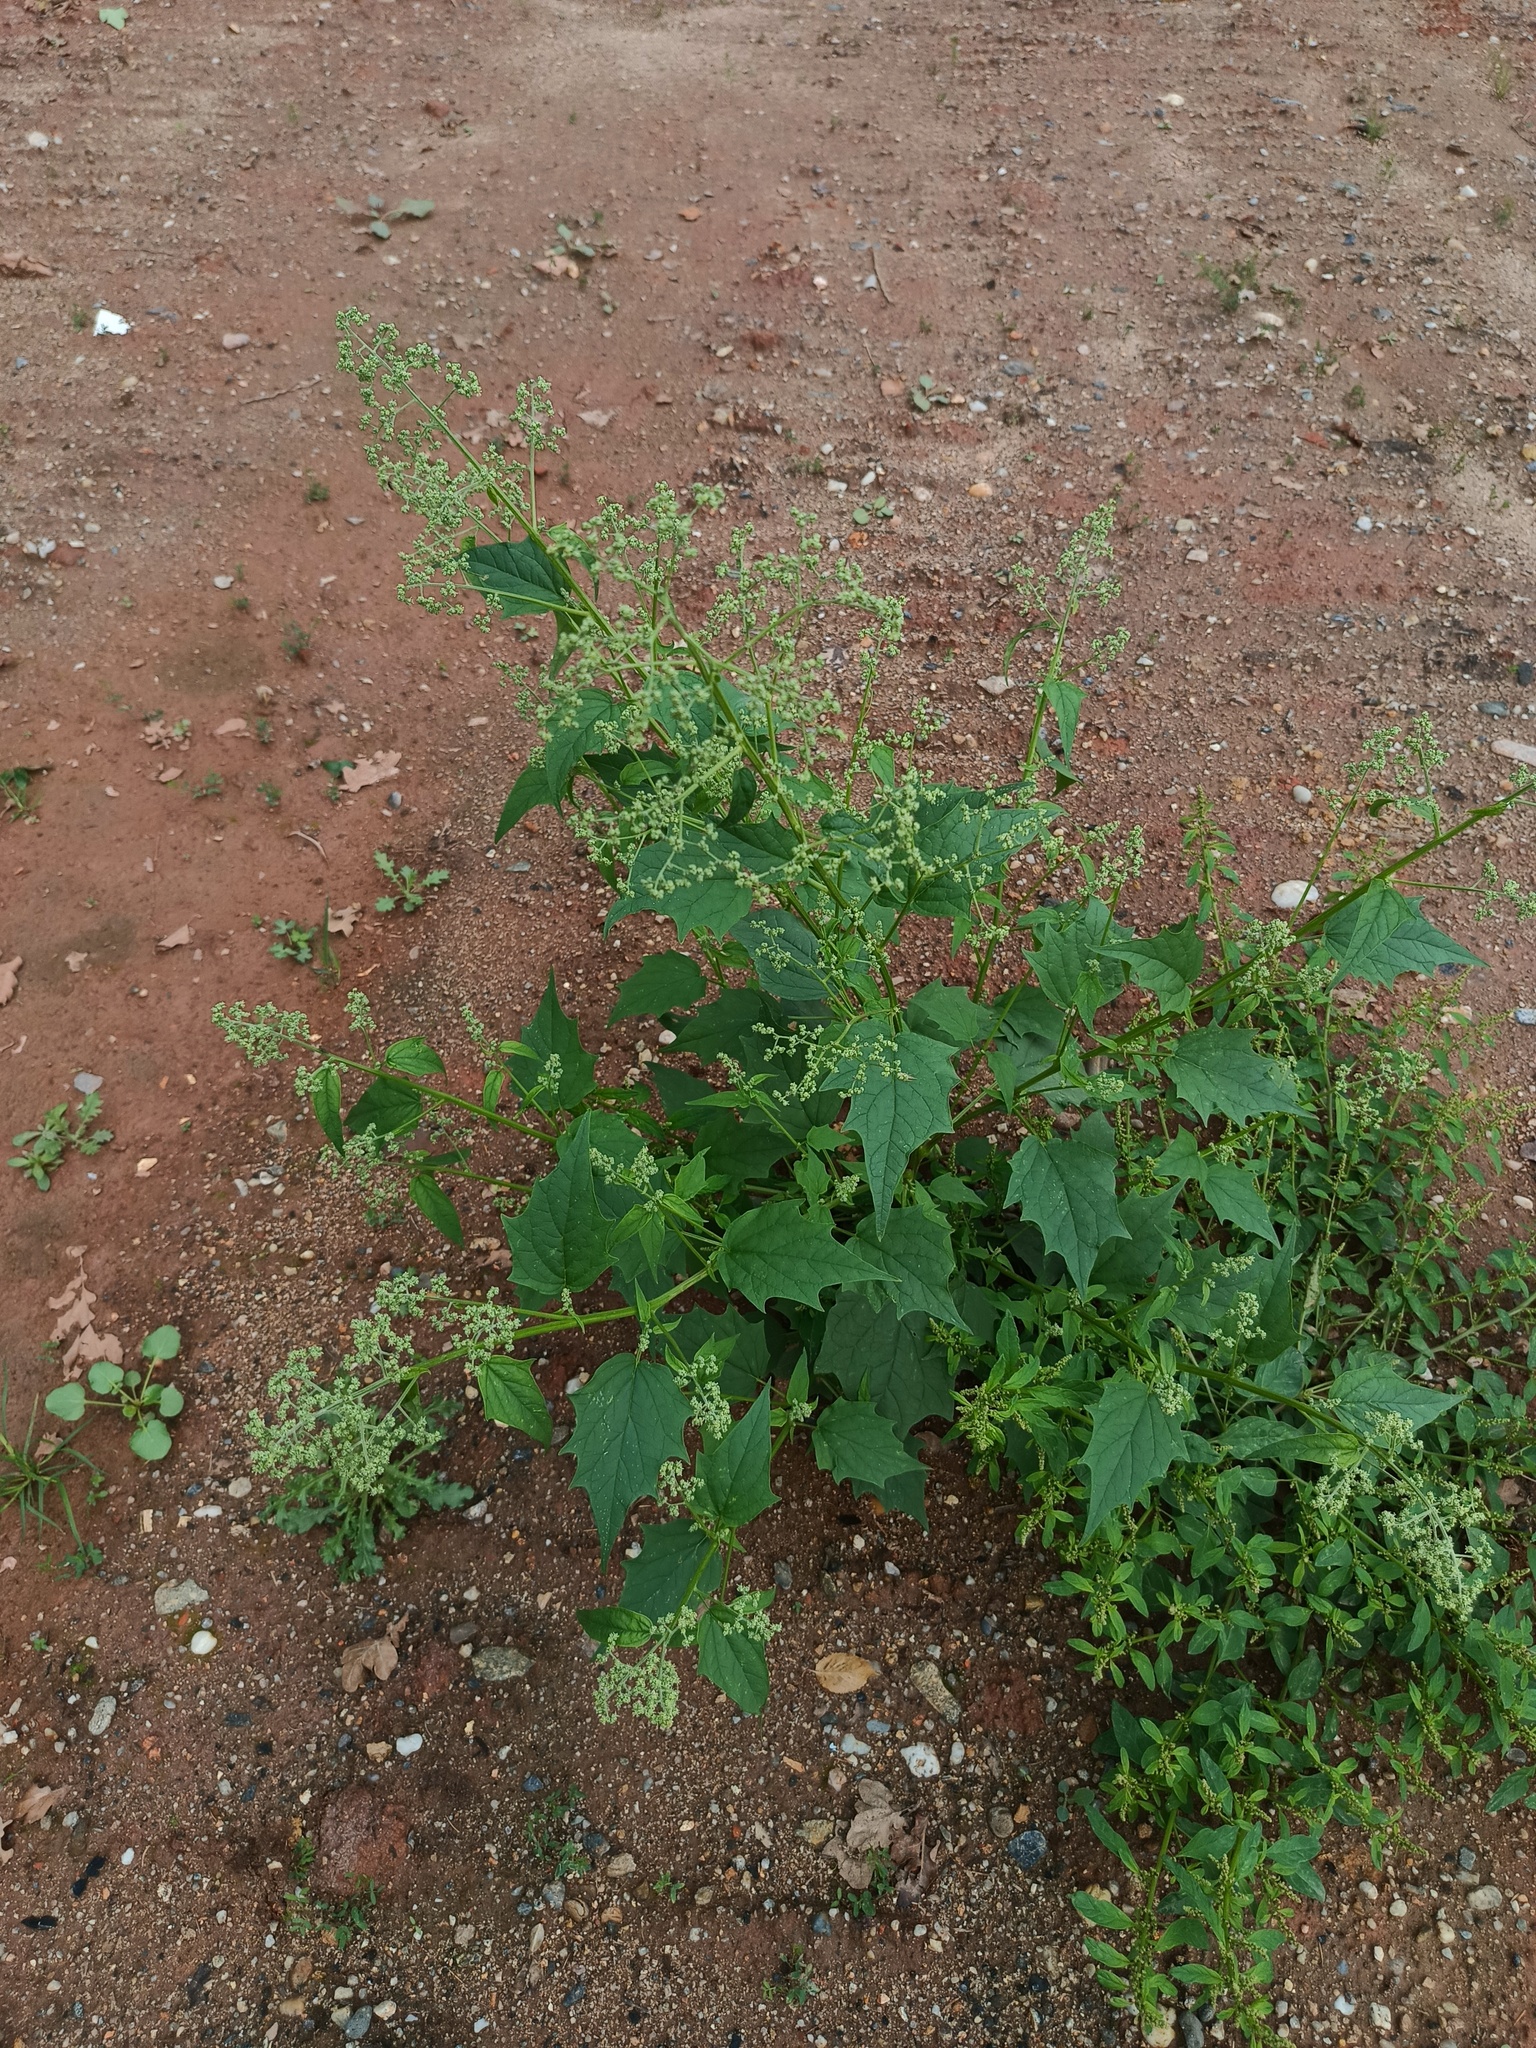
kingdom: Plantae
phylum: Tracheophyta
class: Magnoliopsida
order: Caryophyllales
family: Amaranthaceae
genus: Chenopodiastrum
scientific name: Chenopodiastrum hybridum
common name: Mapleleaf goosefoot
